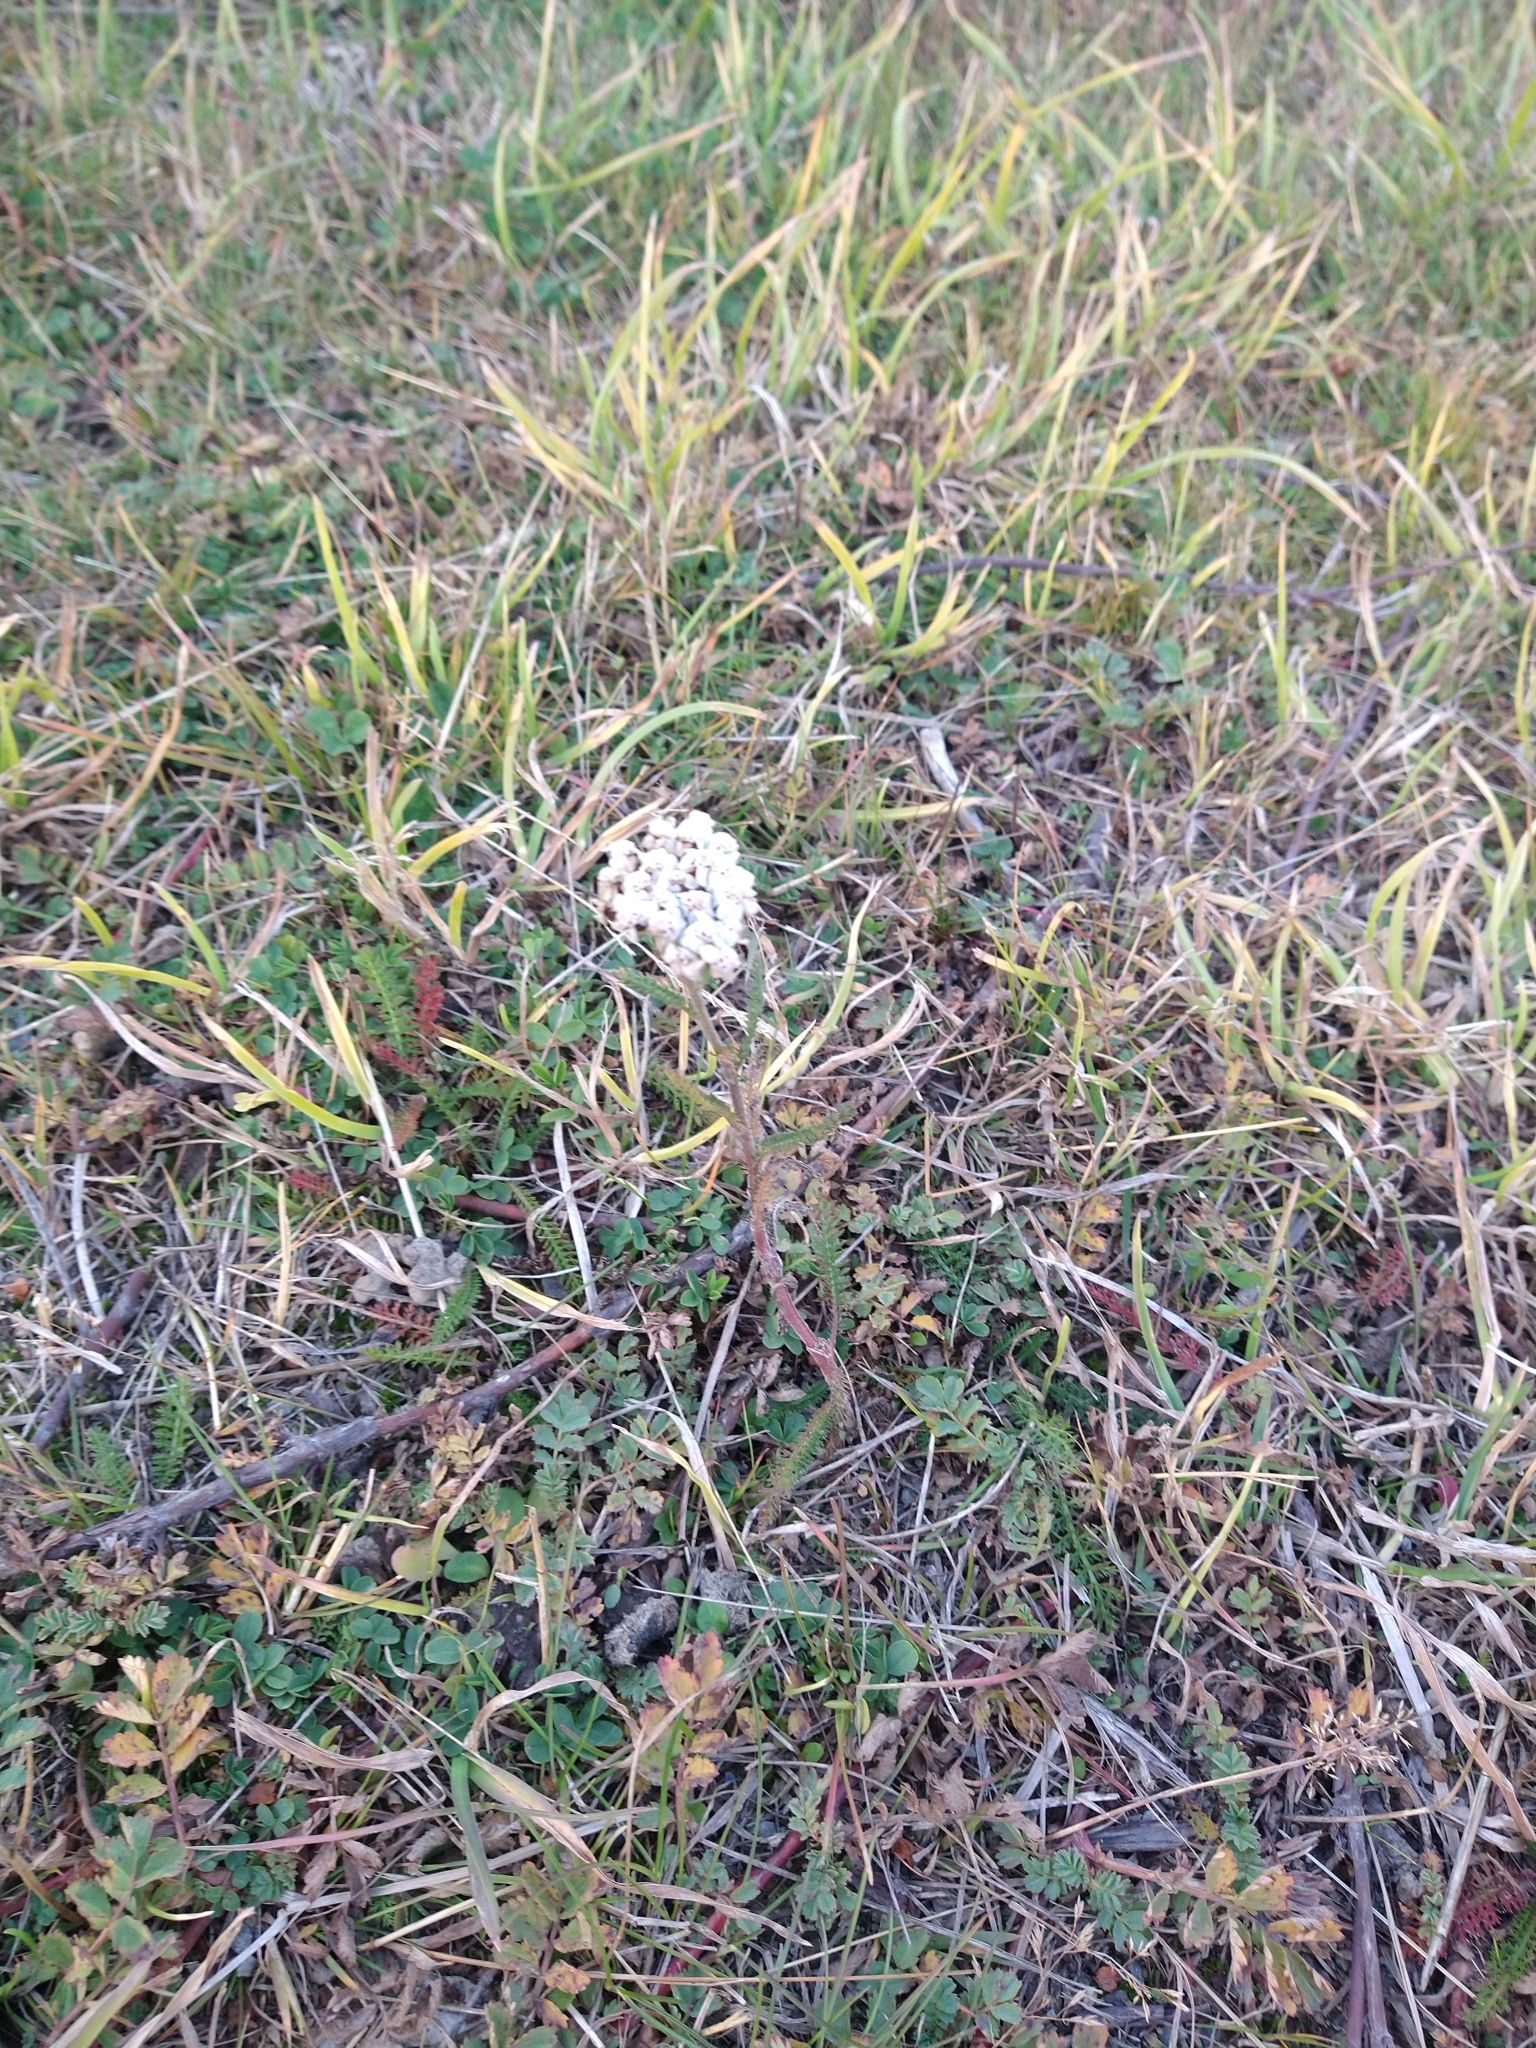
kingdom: Plantae
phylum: Tracheophyta
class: Magnoliopsida
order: Asterales
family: Asteraceae
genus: Achillea
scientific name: Achillea millefolium
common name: Yarrow
